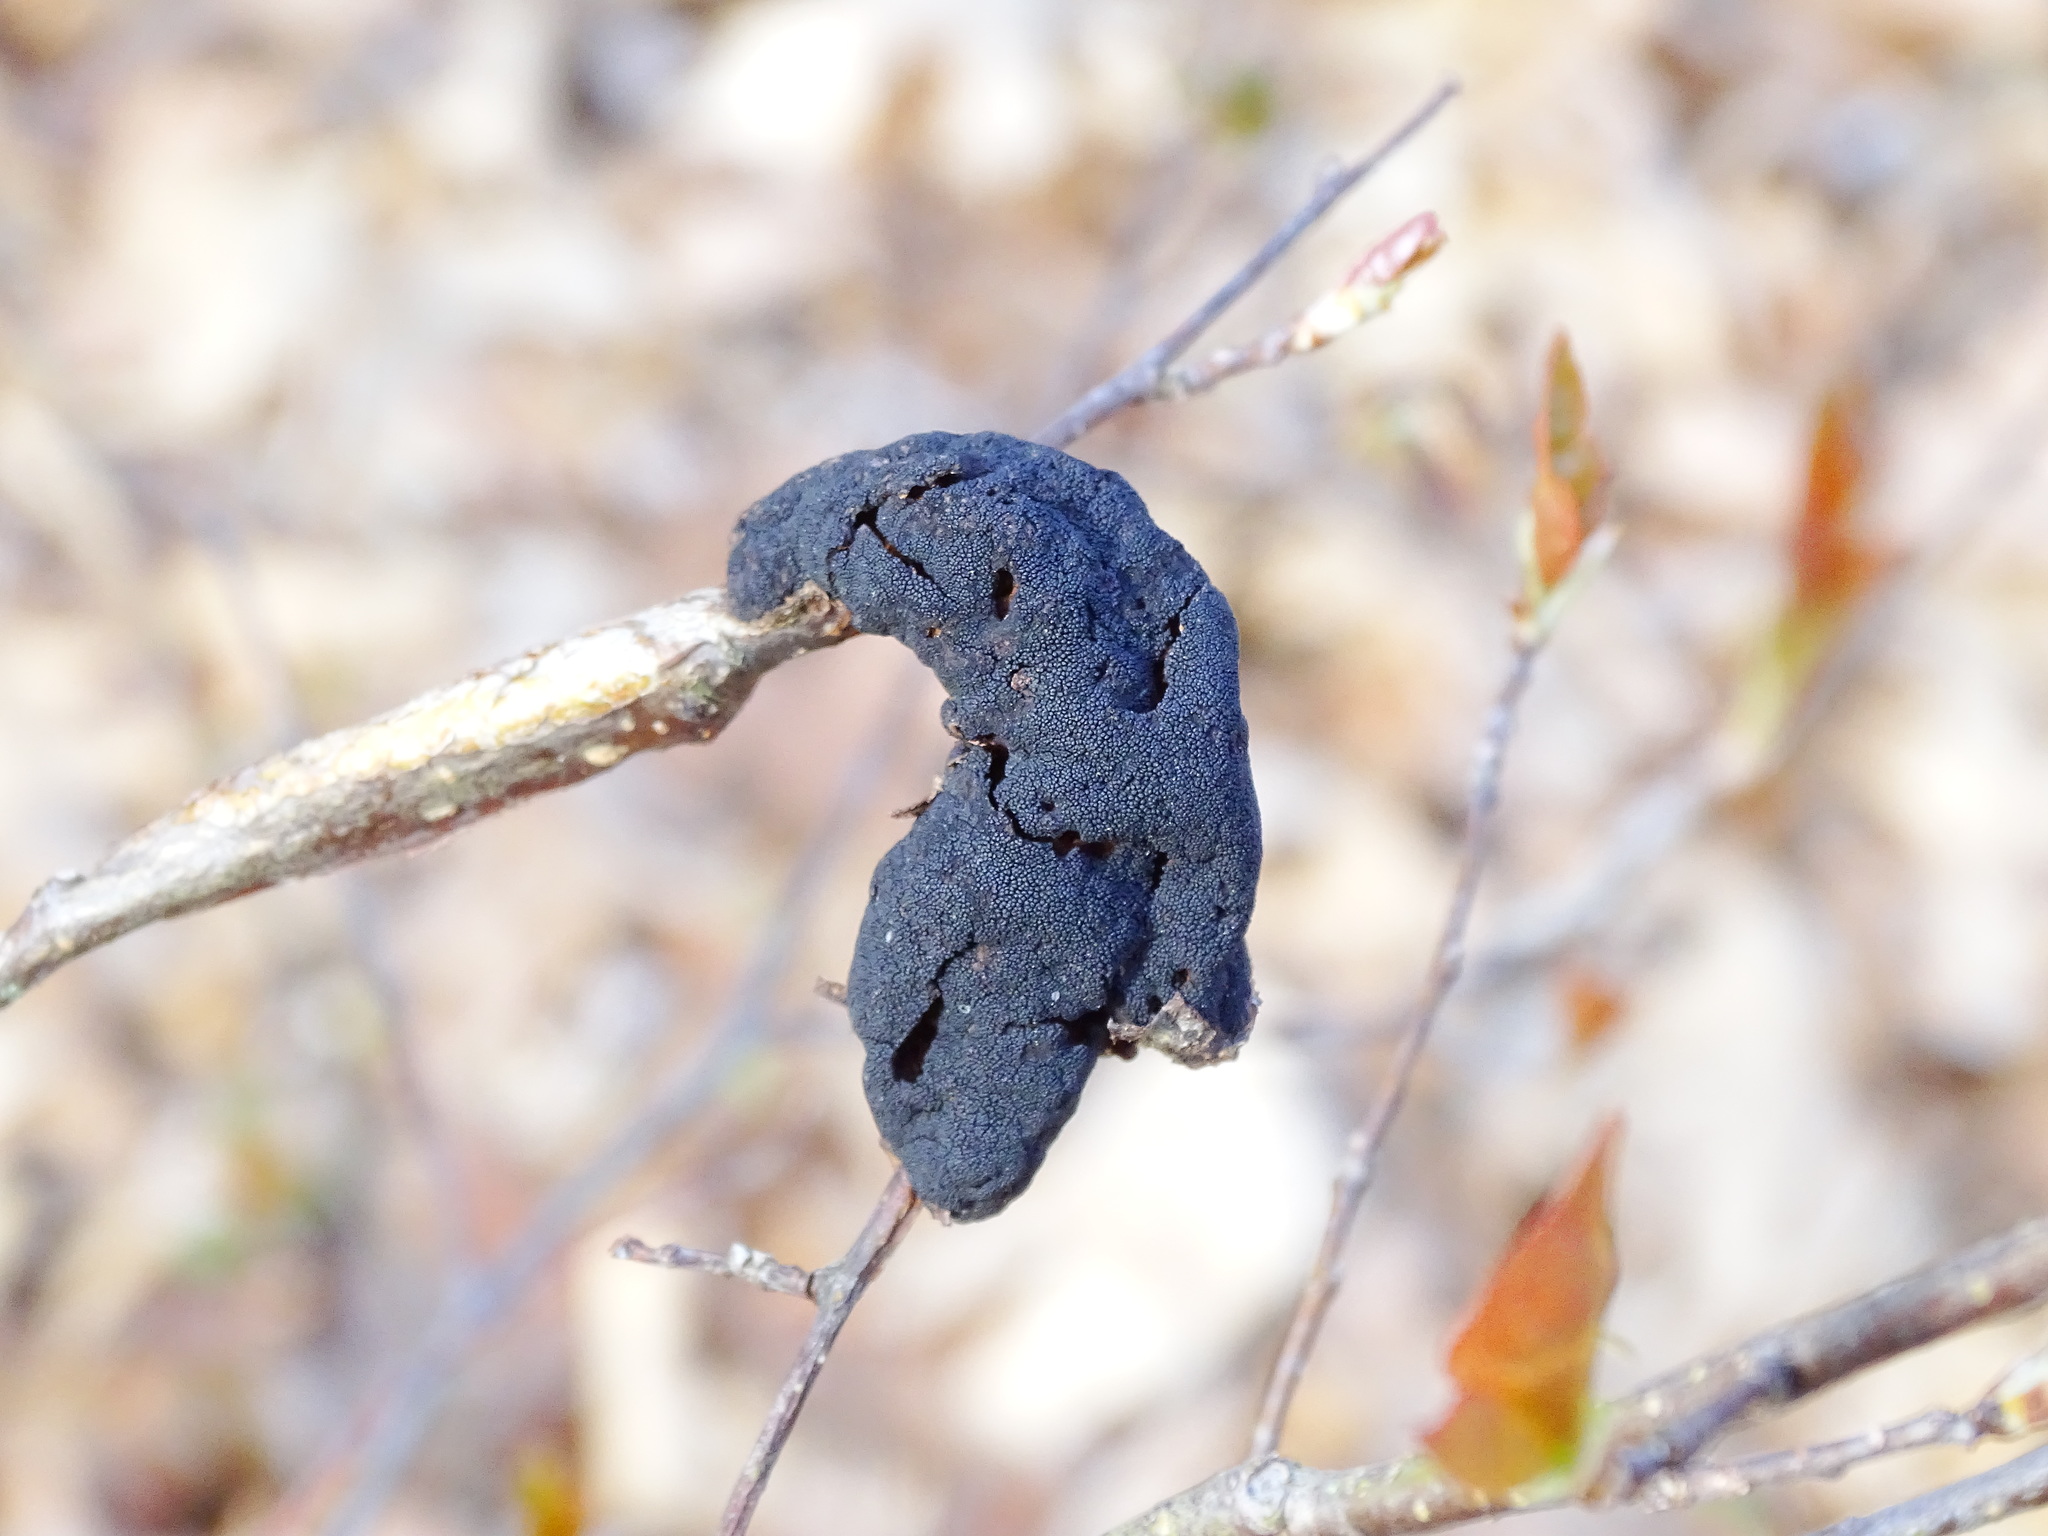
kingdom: Fungi
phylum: Ascomycota
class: Dothideomycetes
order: Venturiales
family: Venturiaceae
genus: Apiosporina
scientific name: Apiosporina morbosa
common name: Black knot
